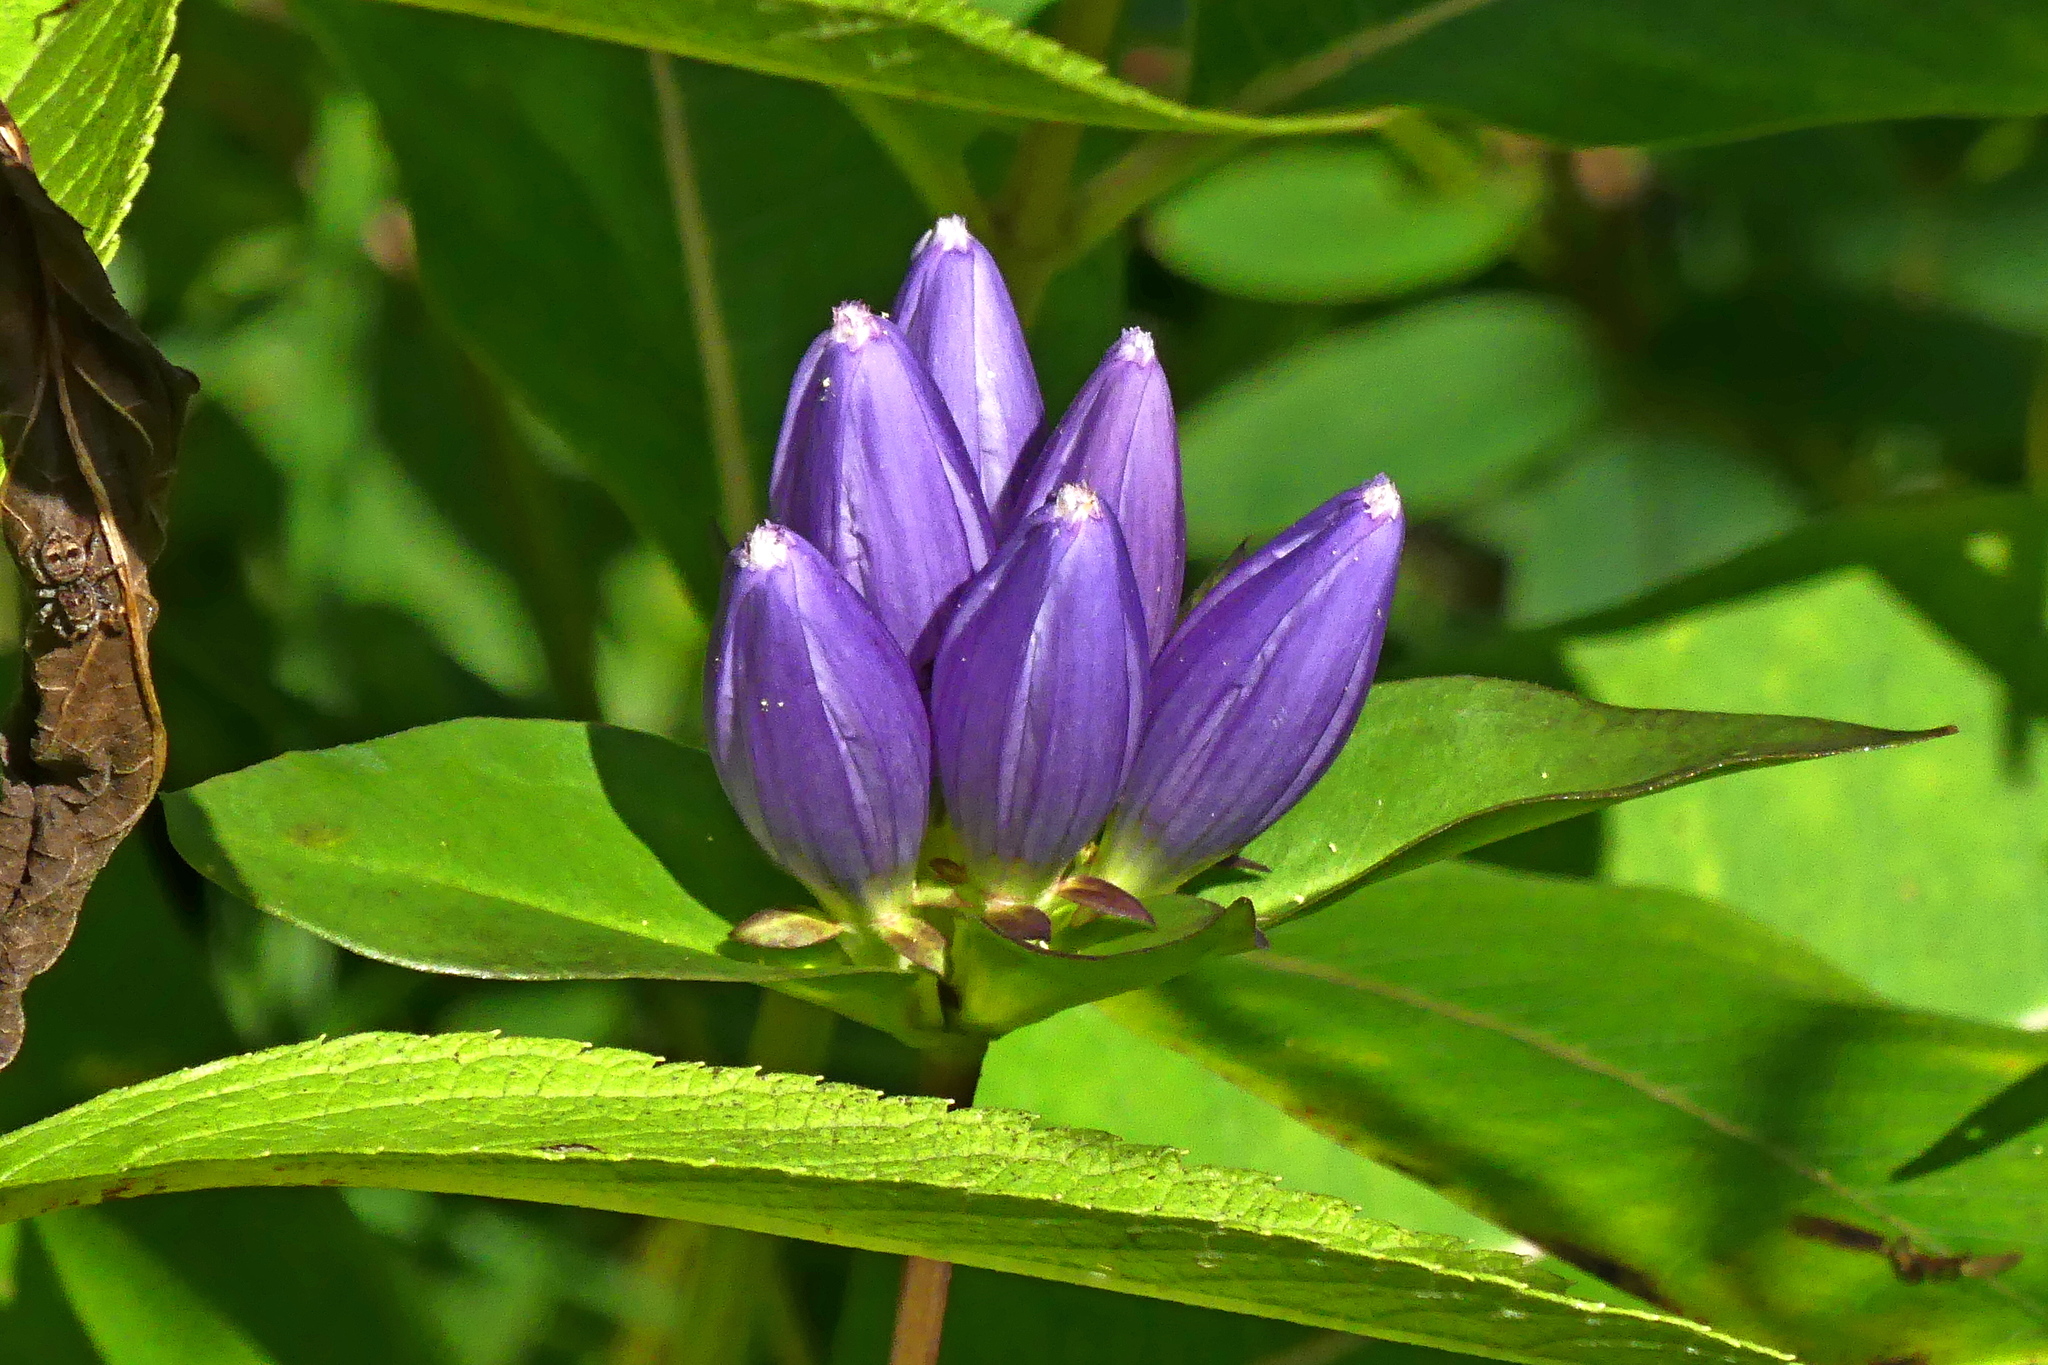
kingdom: Plantae
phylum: Tracheophyta
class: Magnoliopsida
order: Gentianales
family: Gentianaceae
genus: Gentiana
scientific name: Gentiana andrewsii
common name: Bottle gentian
